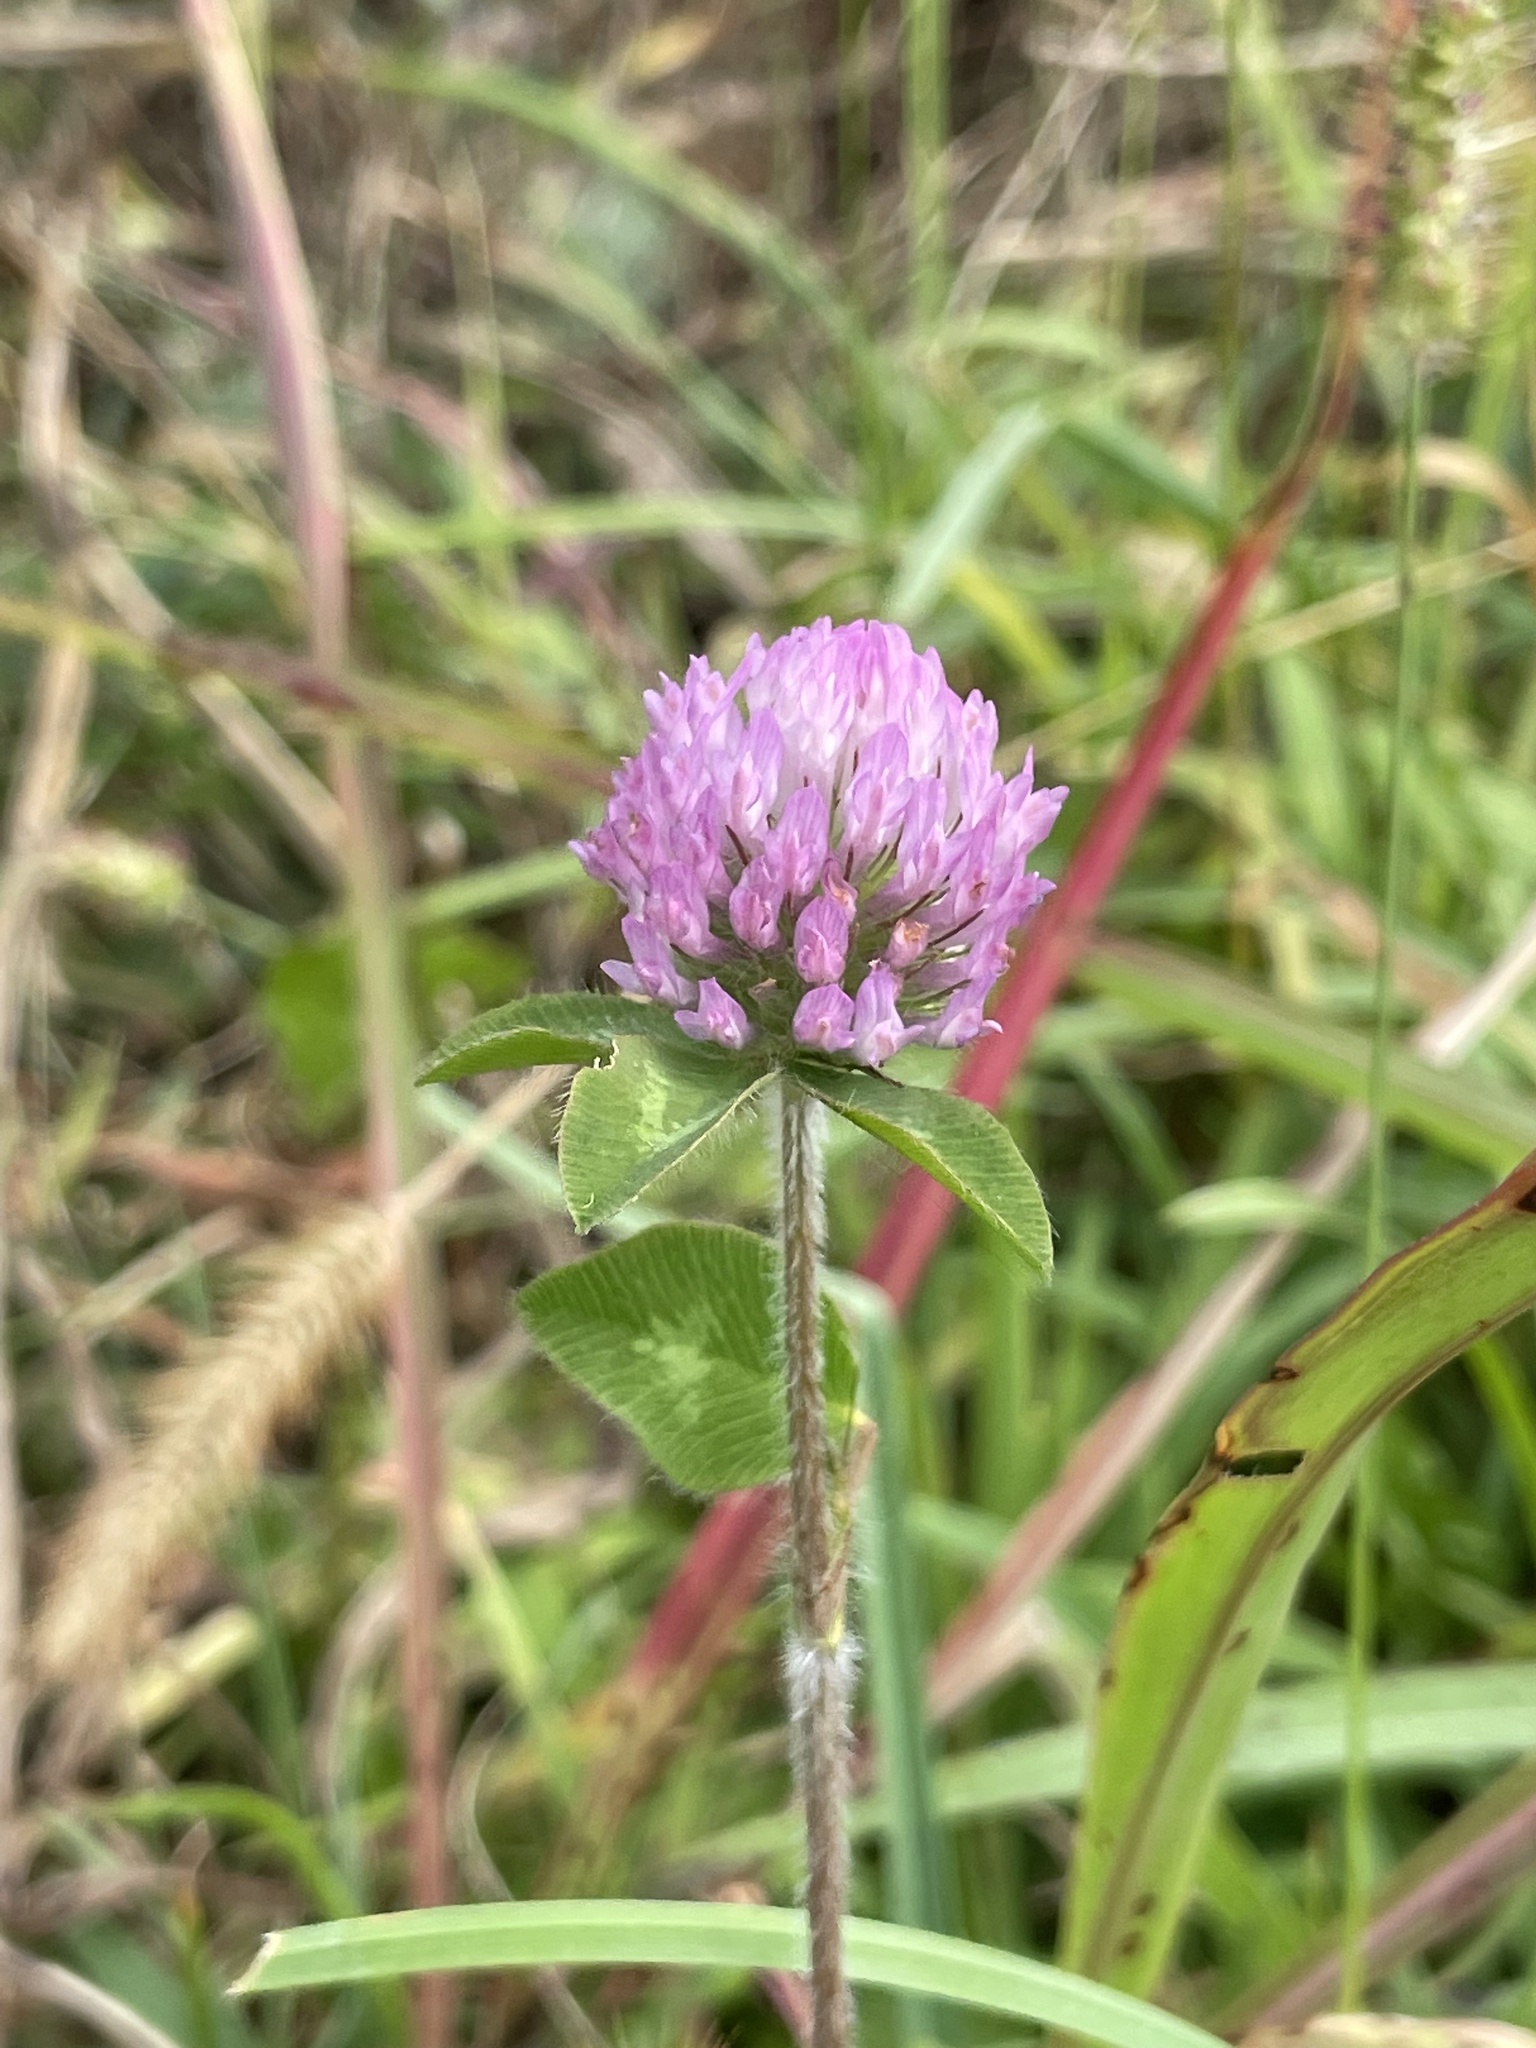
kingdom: Plantae
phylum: Tracheophyta
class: Magnoliopsida
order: Fabales
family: Fabaceae
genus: Trifolium
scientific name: Trifolium pratense
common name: Red clover
